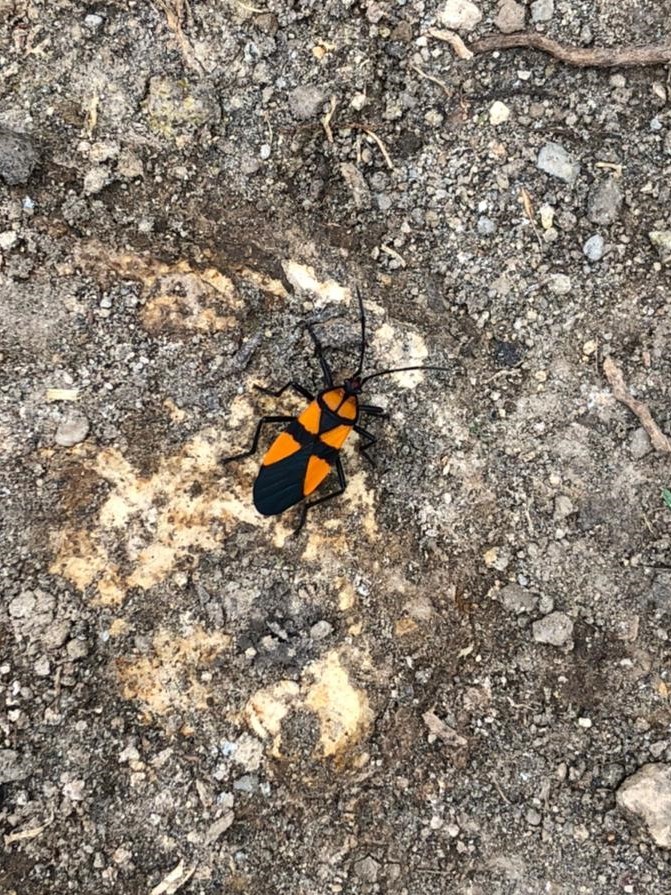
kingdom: Animalia
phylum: Arthropoda
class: Insecta
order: Hemiptera
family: Lygaeidae
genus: Oncopeltus
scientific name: Oncopeltus orourkeae
